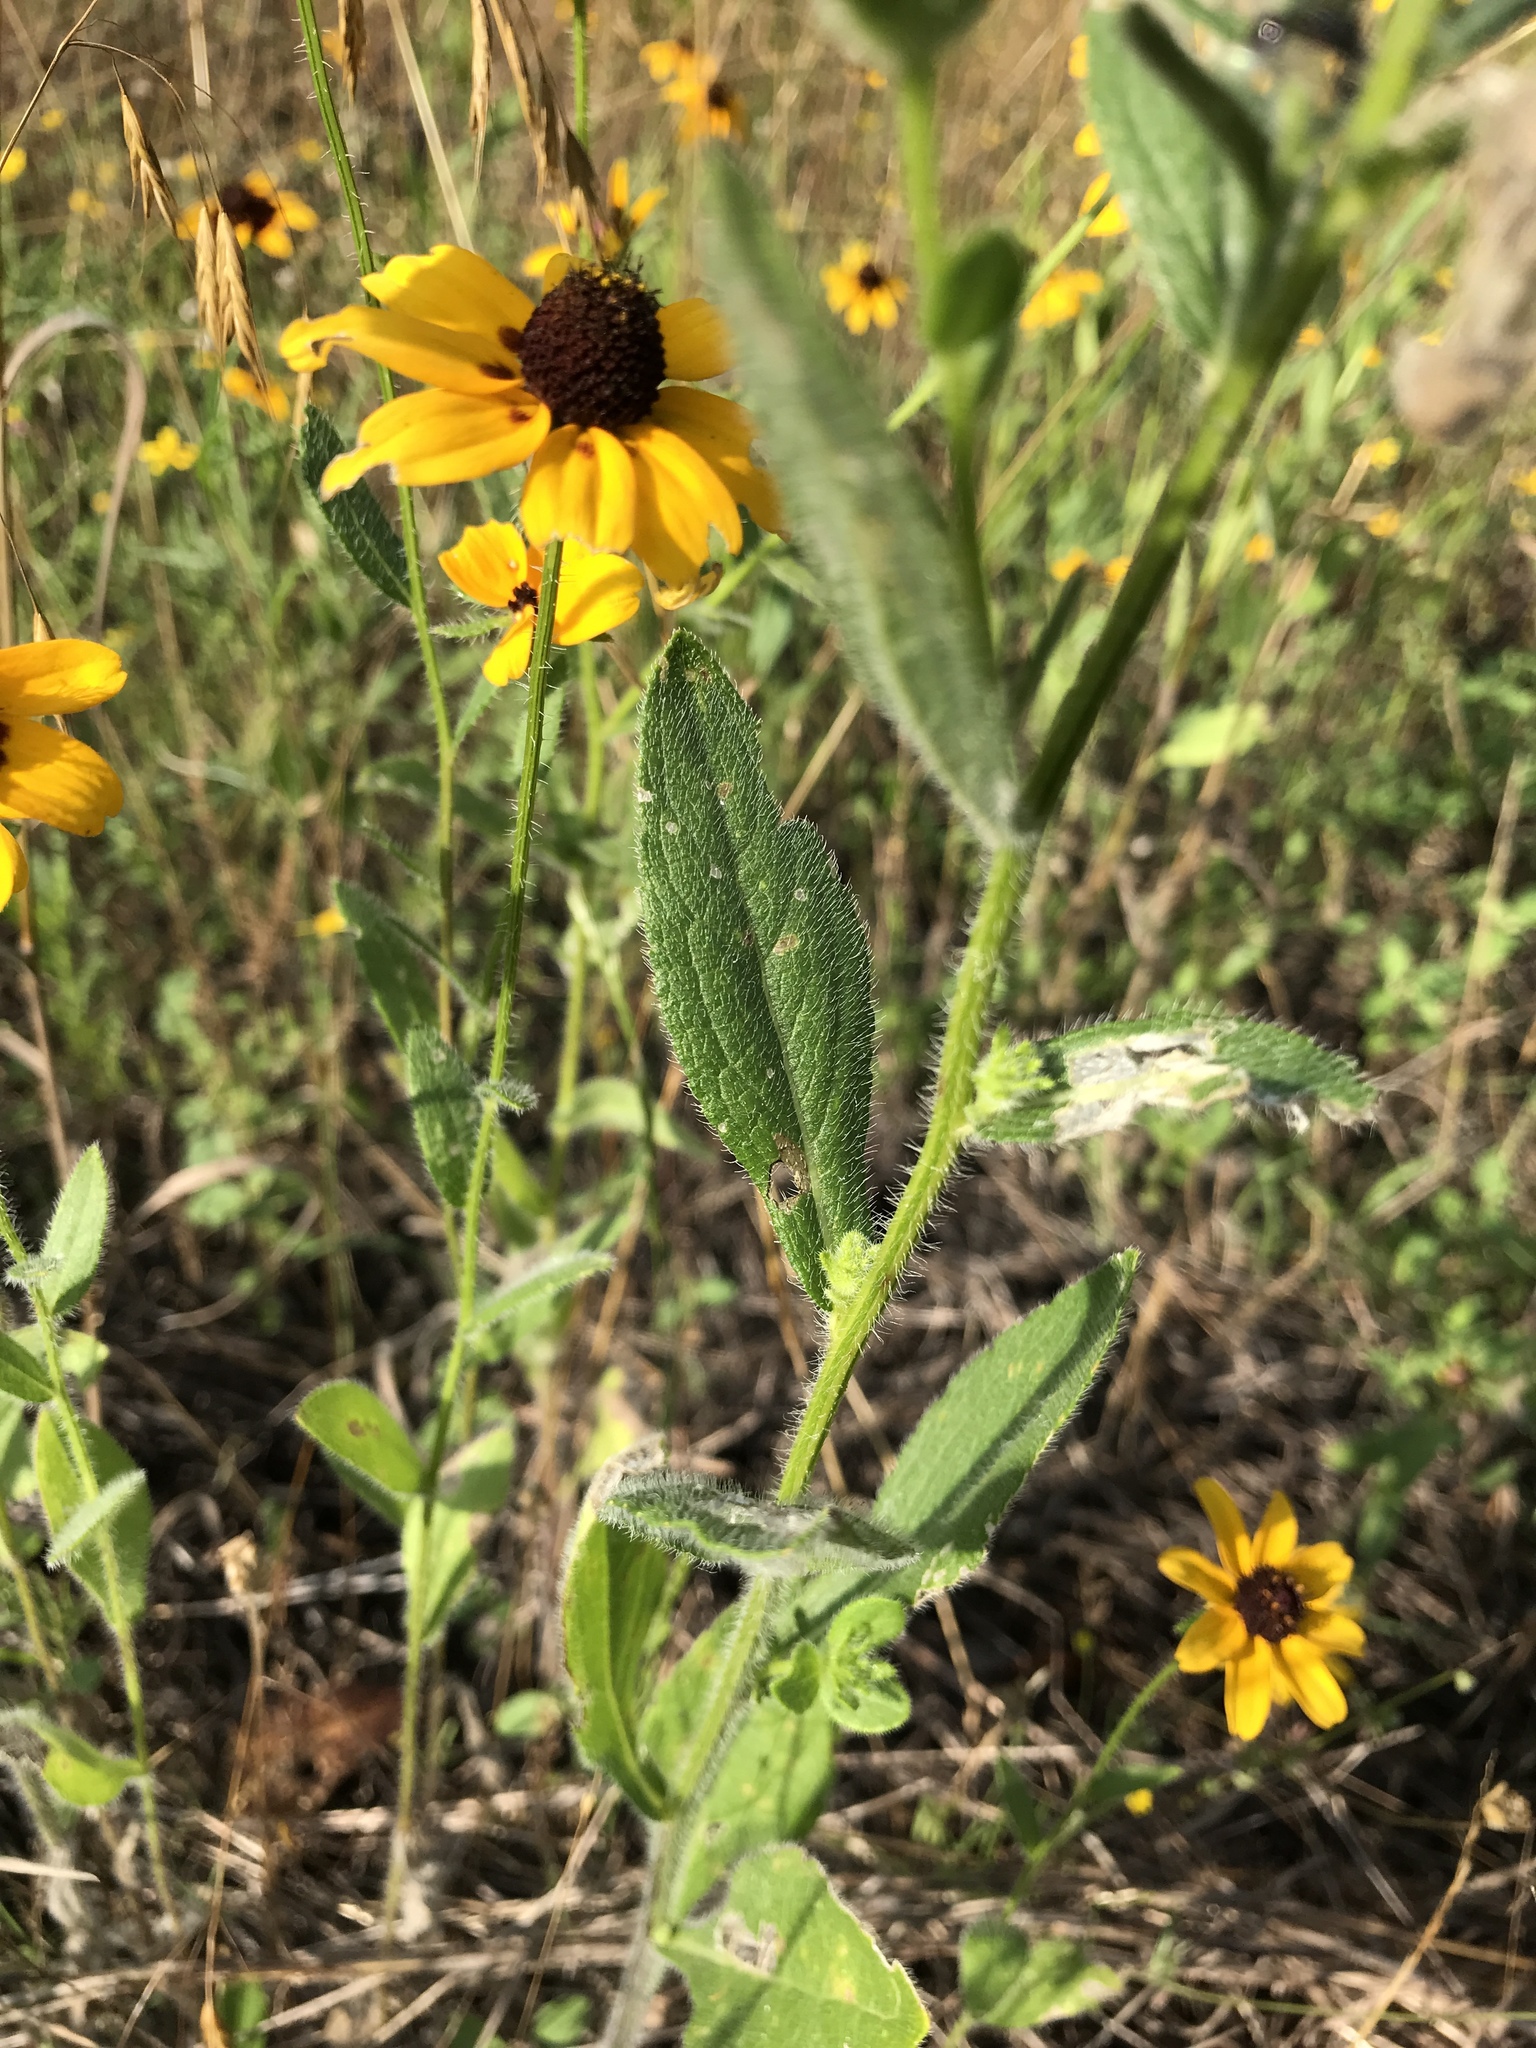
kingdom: Plantae
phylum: Tracheophyta
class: Magnoliopsida
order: Asterales
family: Asteraceae
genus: Rudbeckia
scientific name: Rudbeckia hirta
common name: Black-eyed-susan
